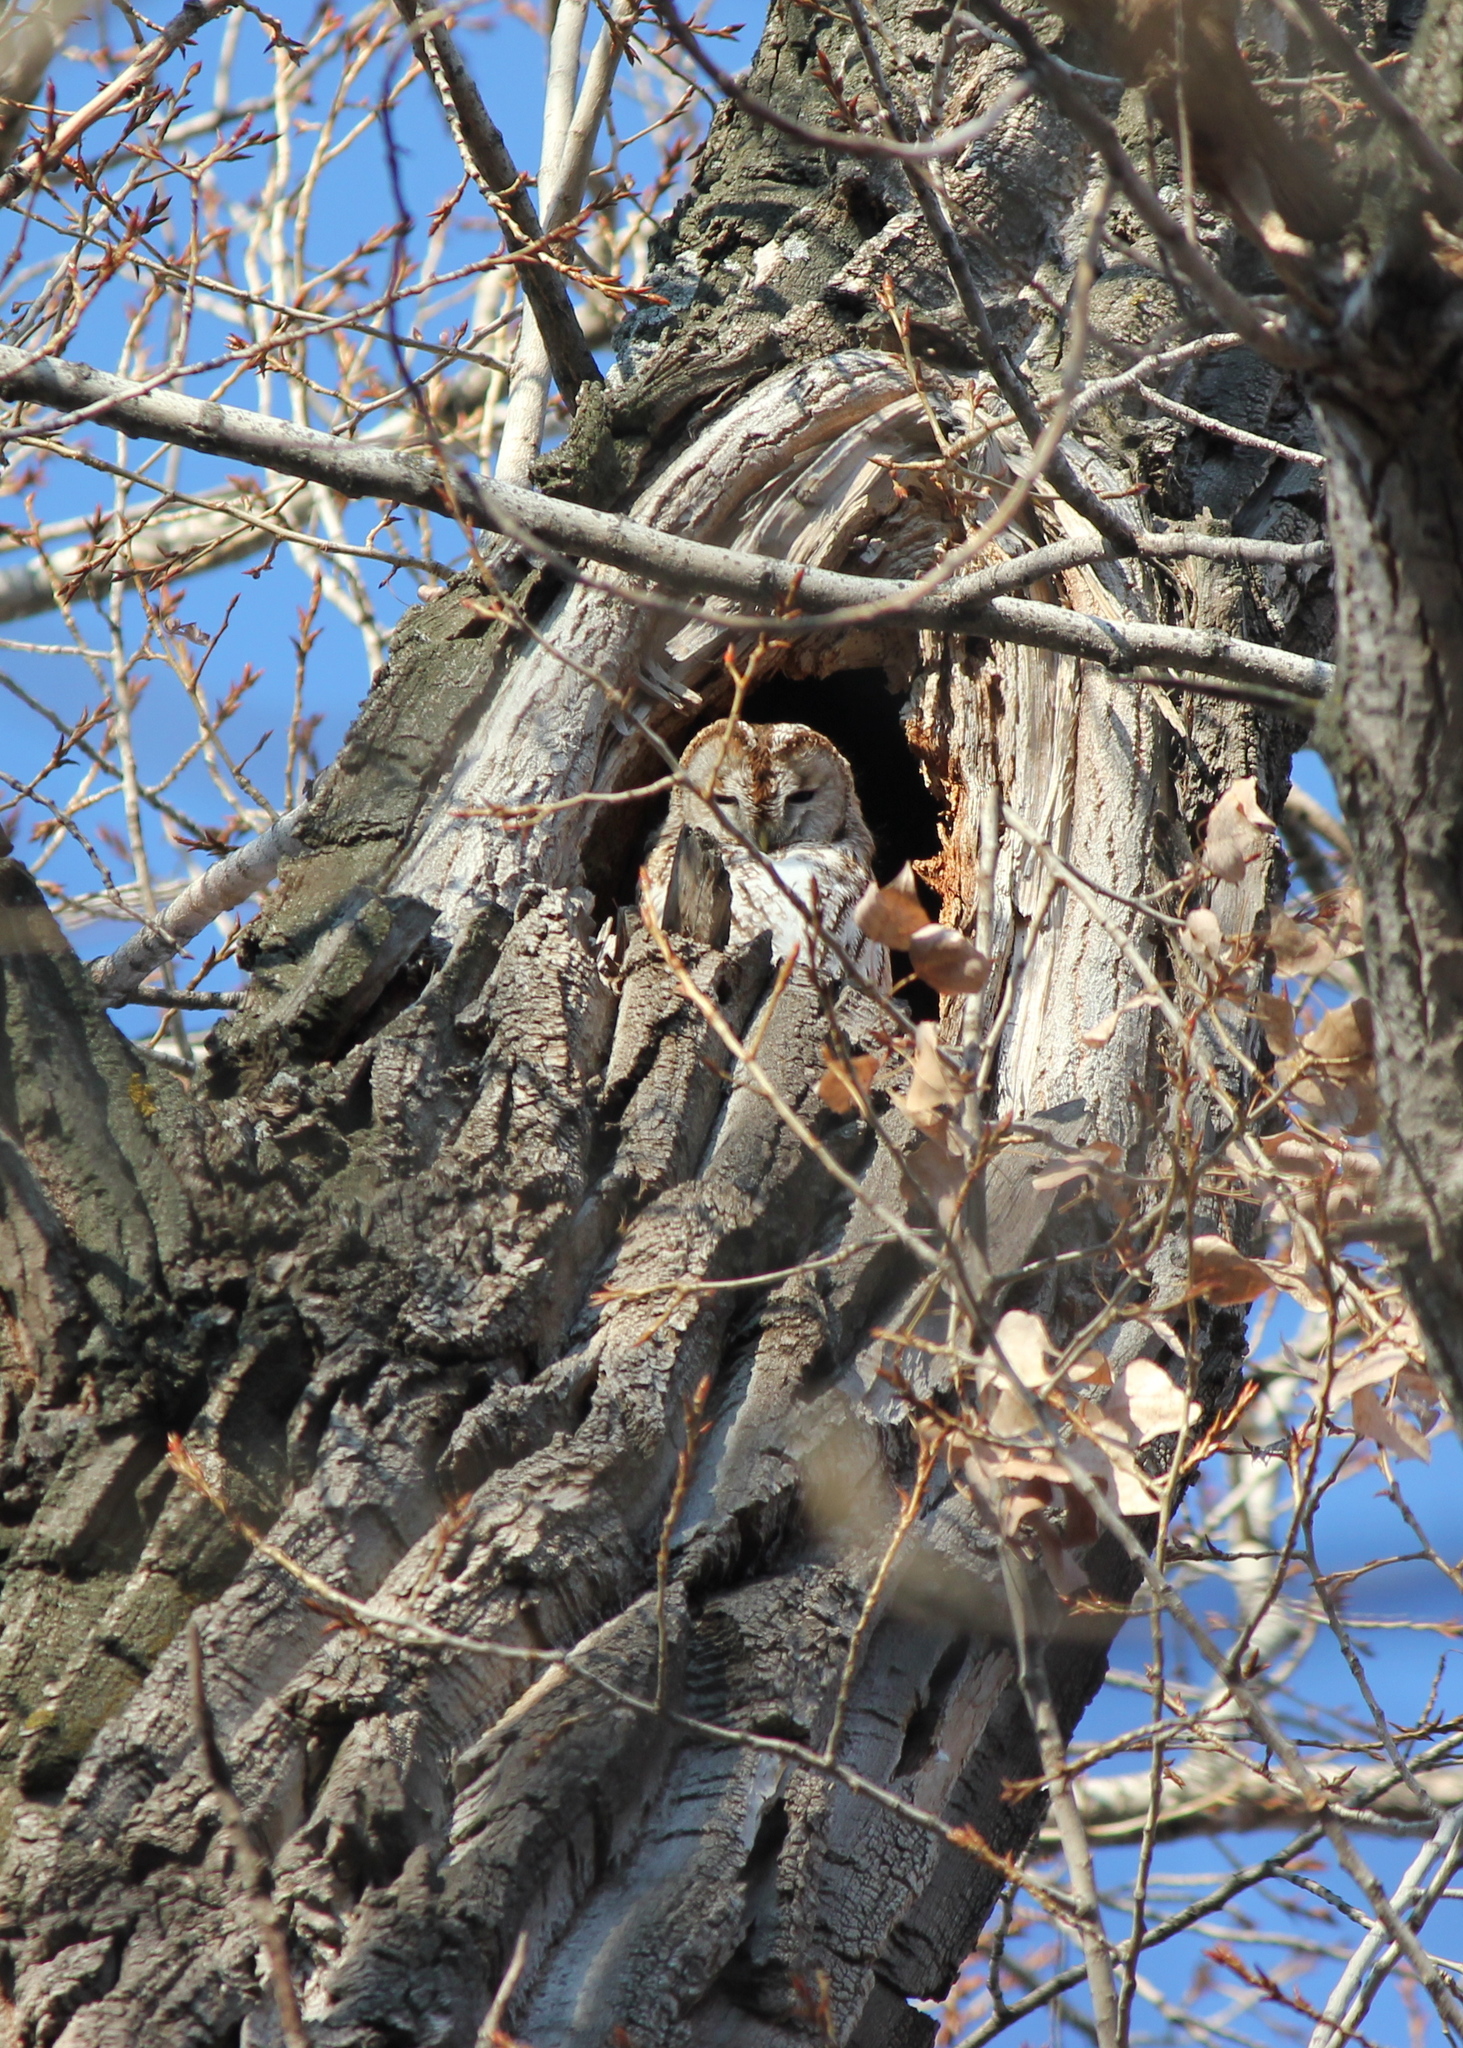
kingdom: Animalia
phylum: Chordata
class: Aves
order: Strigiformes
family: Strigidae
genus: Strix
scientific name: Strix aluco
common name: Tawny owl
